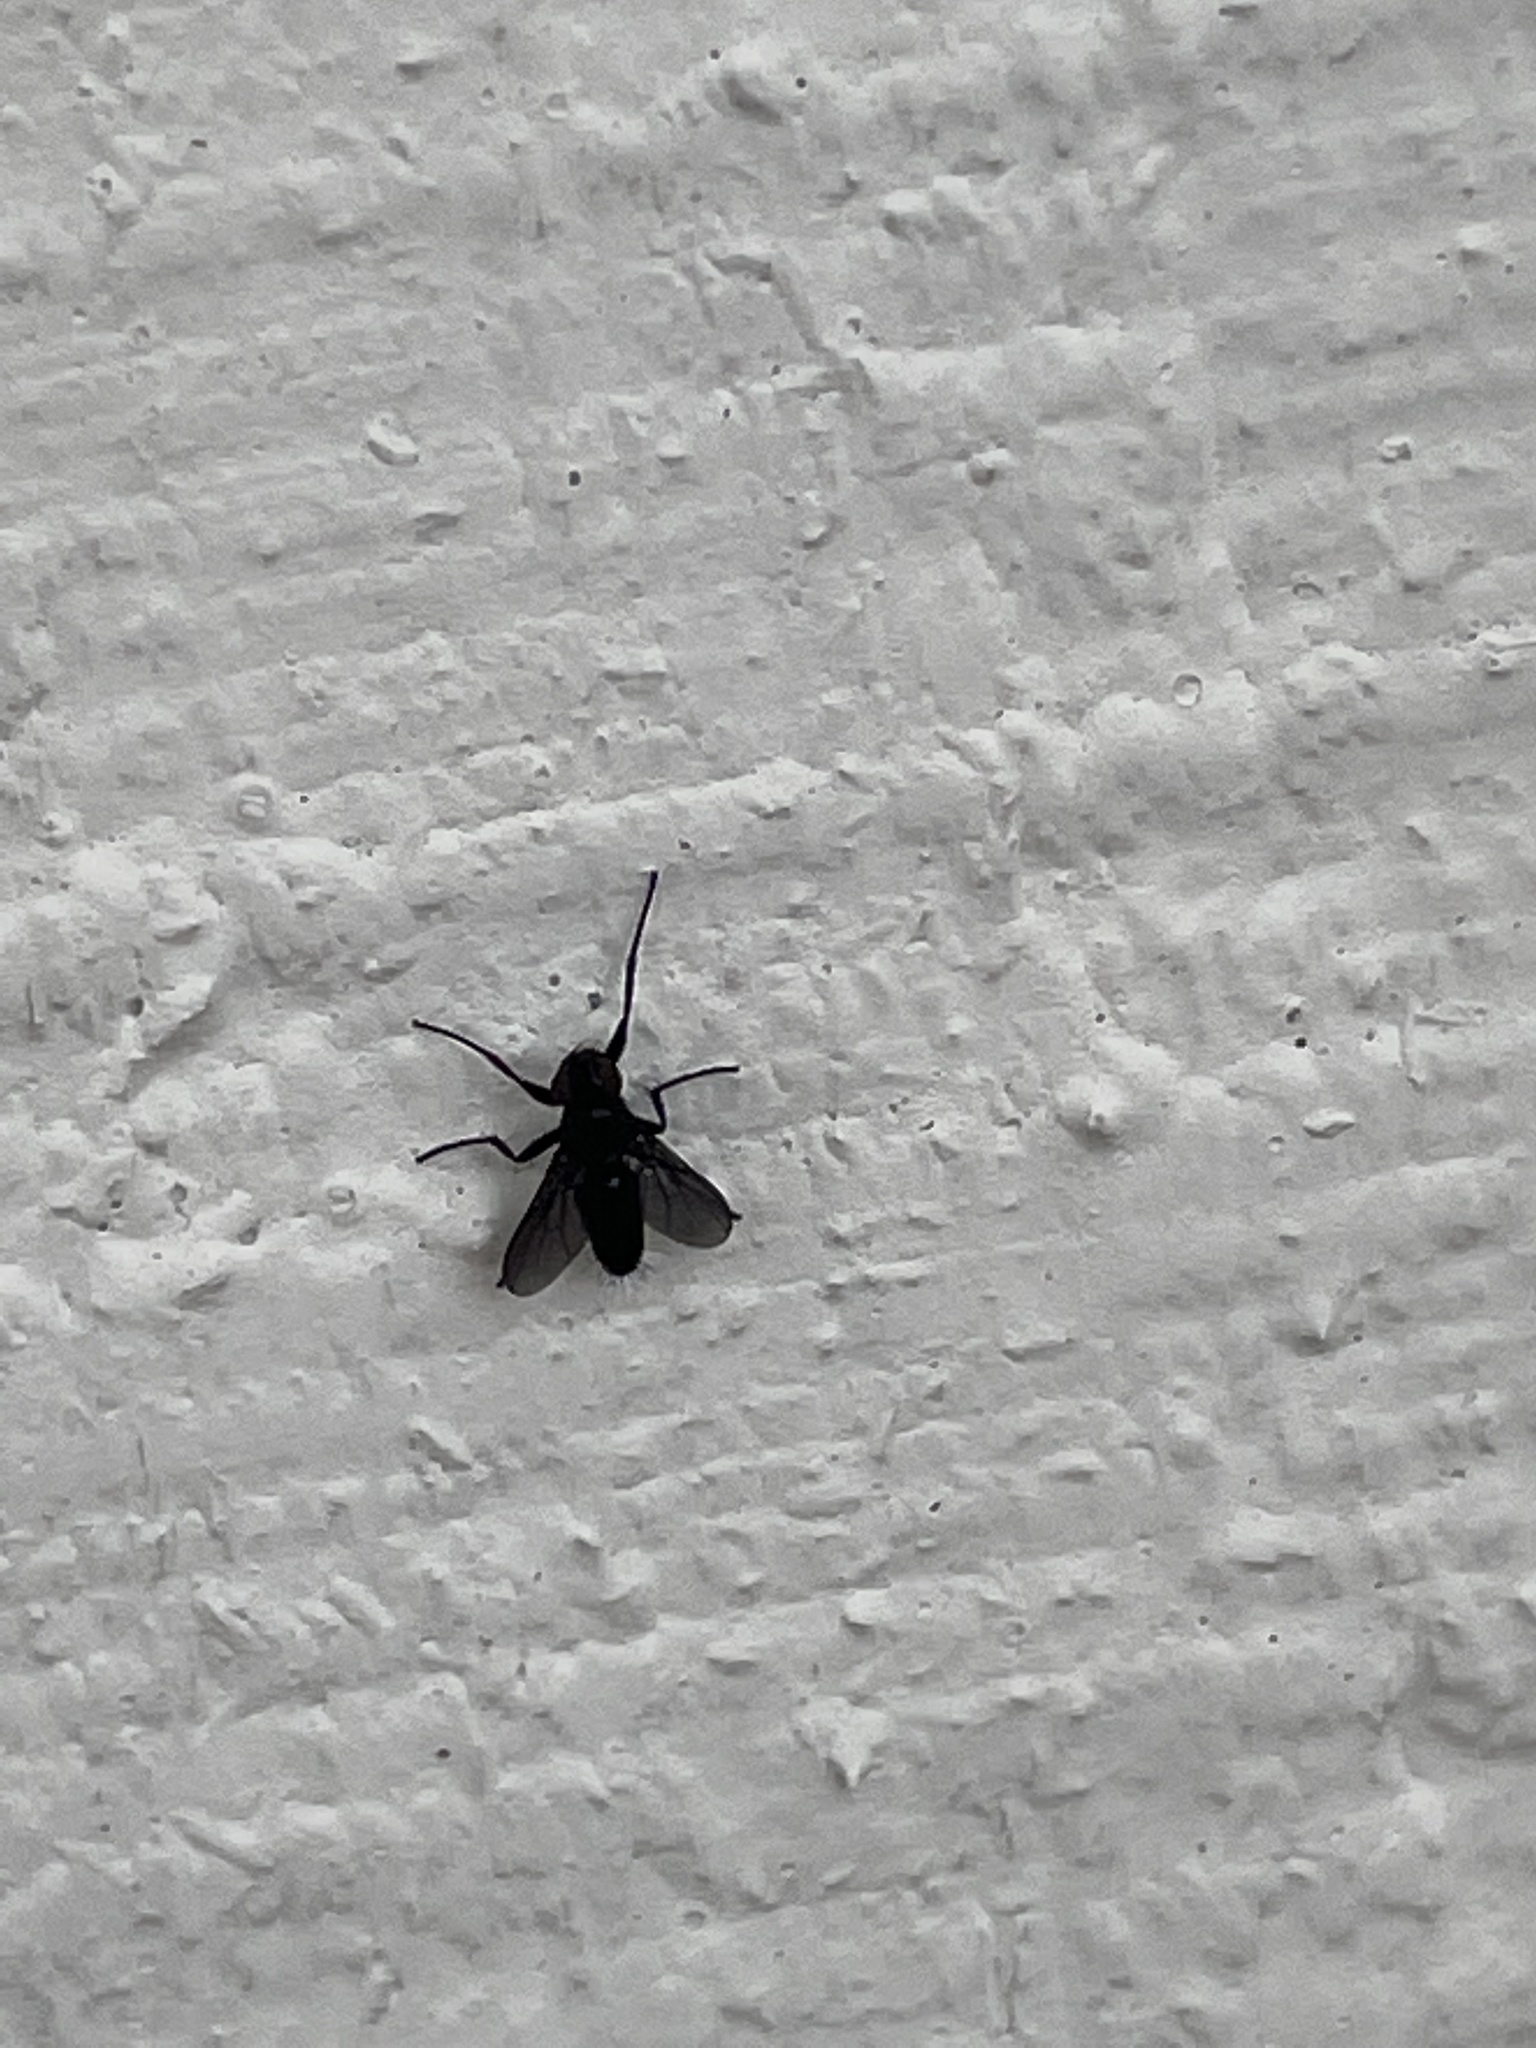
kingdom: Animalia
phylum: Arthropoda
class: Insecta
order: Diptera
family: Calliphoridae
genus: Melanophora
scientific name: Melanophora
